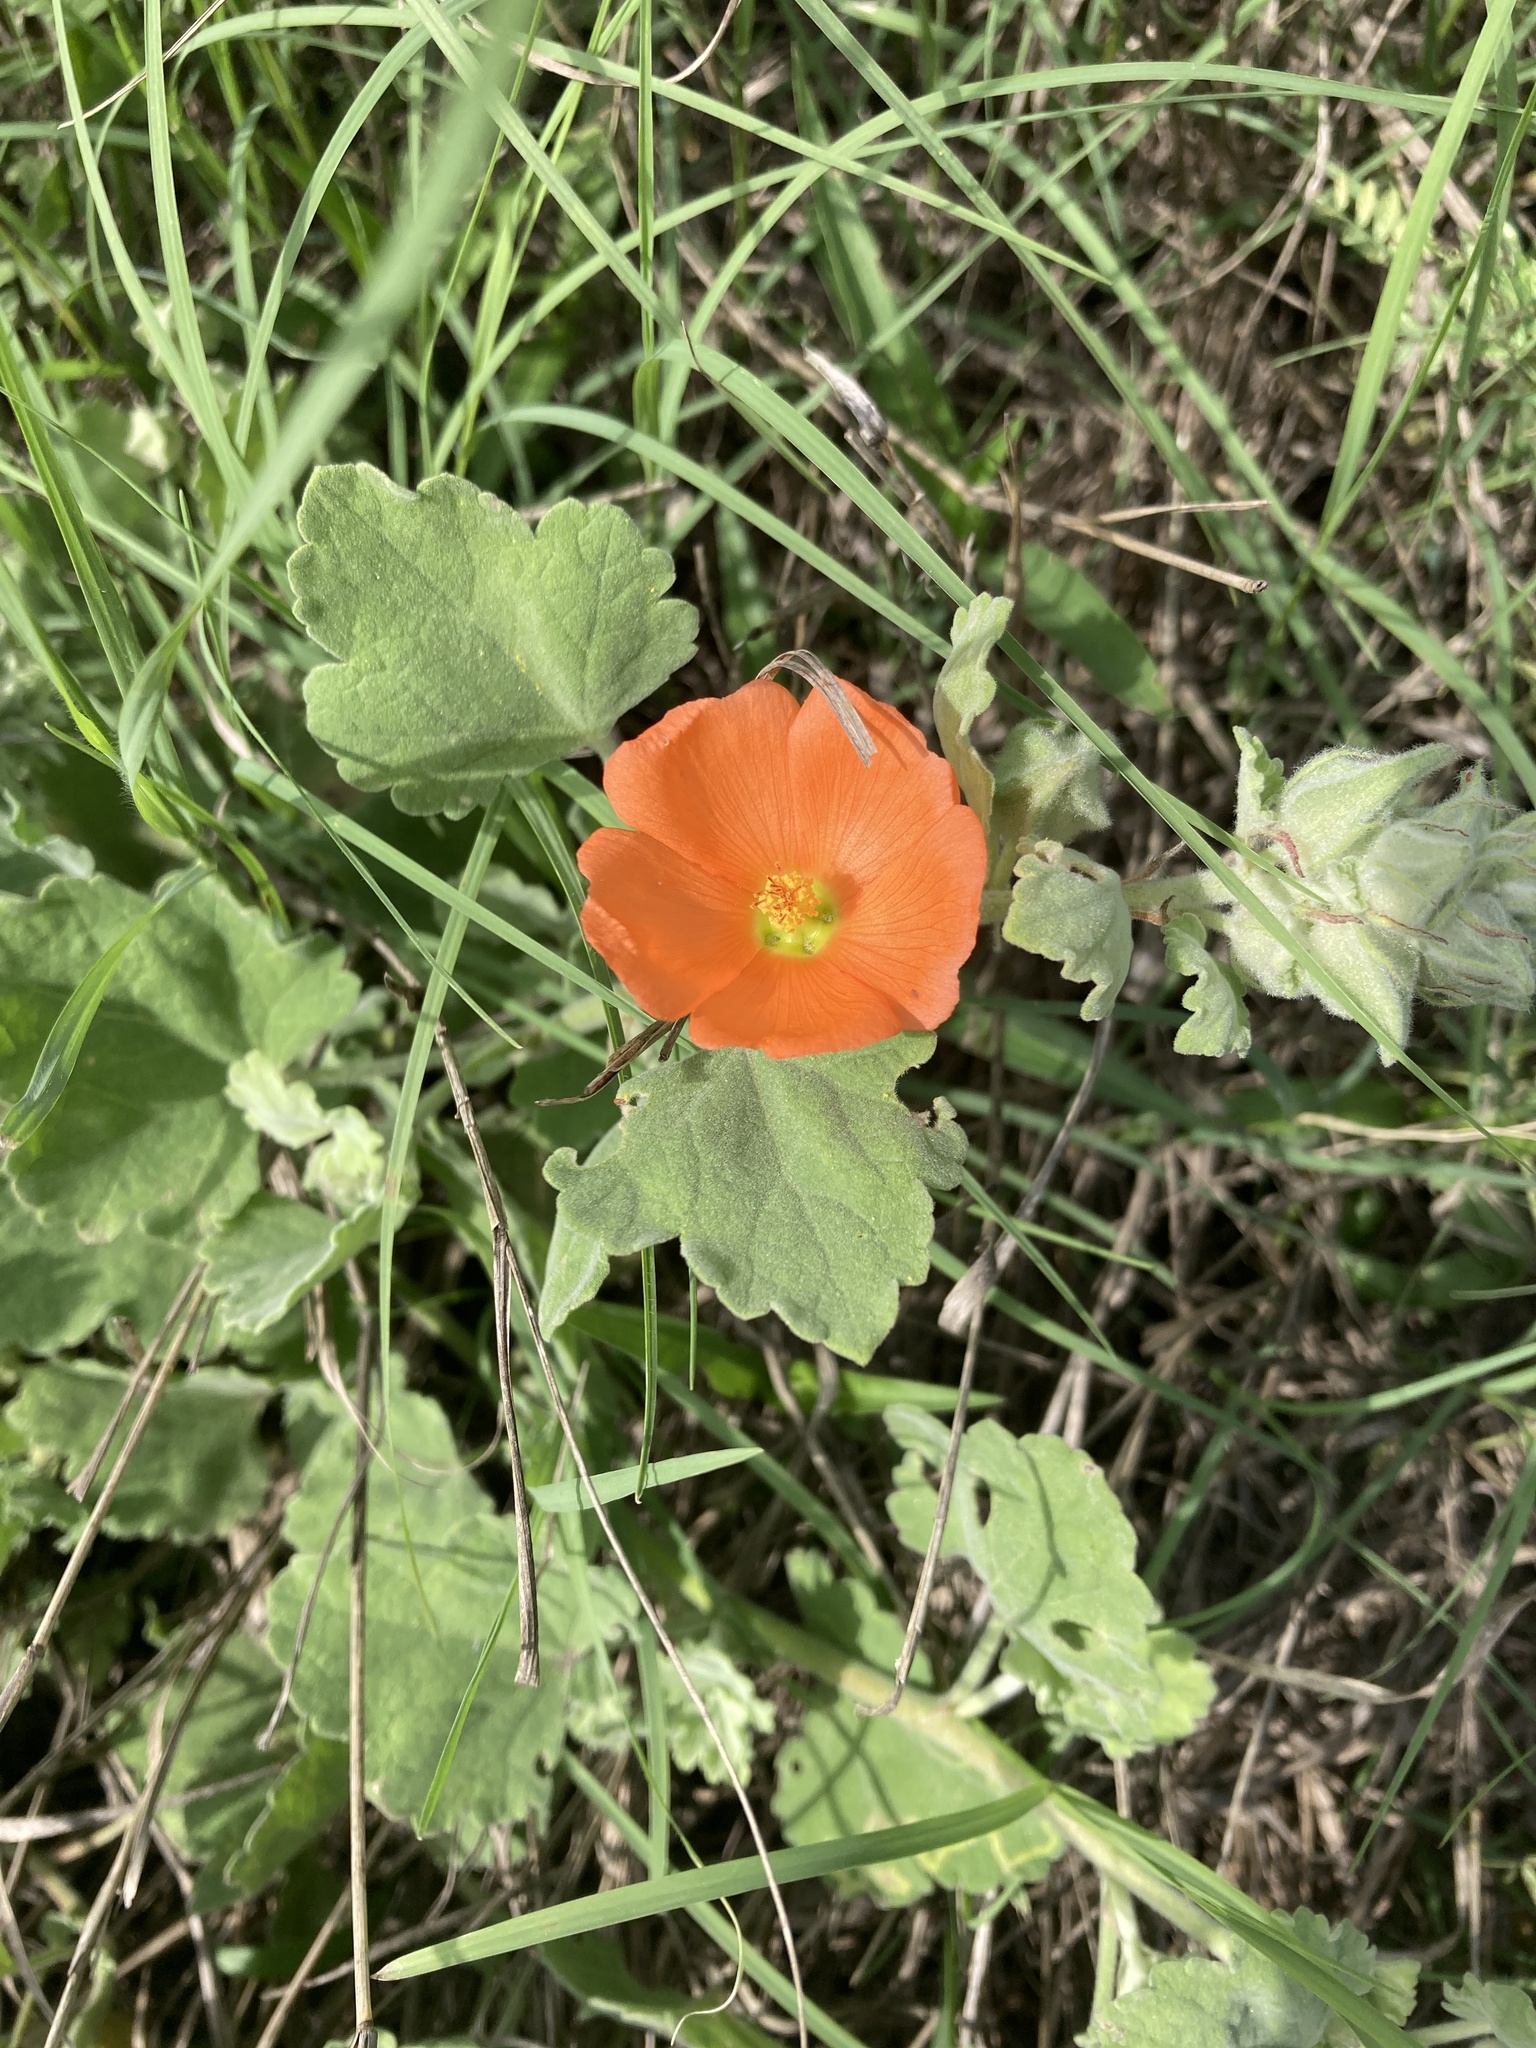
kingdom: Plantae
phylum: Tracheophyta
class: Magnoliopsida
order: Malvales
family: Malvaceae
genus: Sphaeralcea
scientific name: Sphaeralcea lindheimeri
